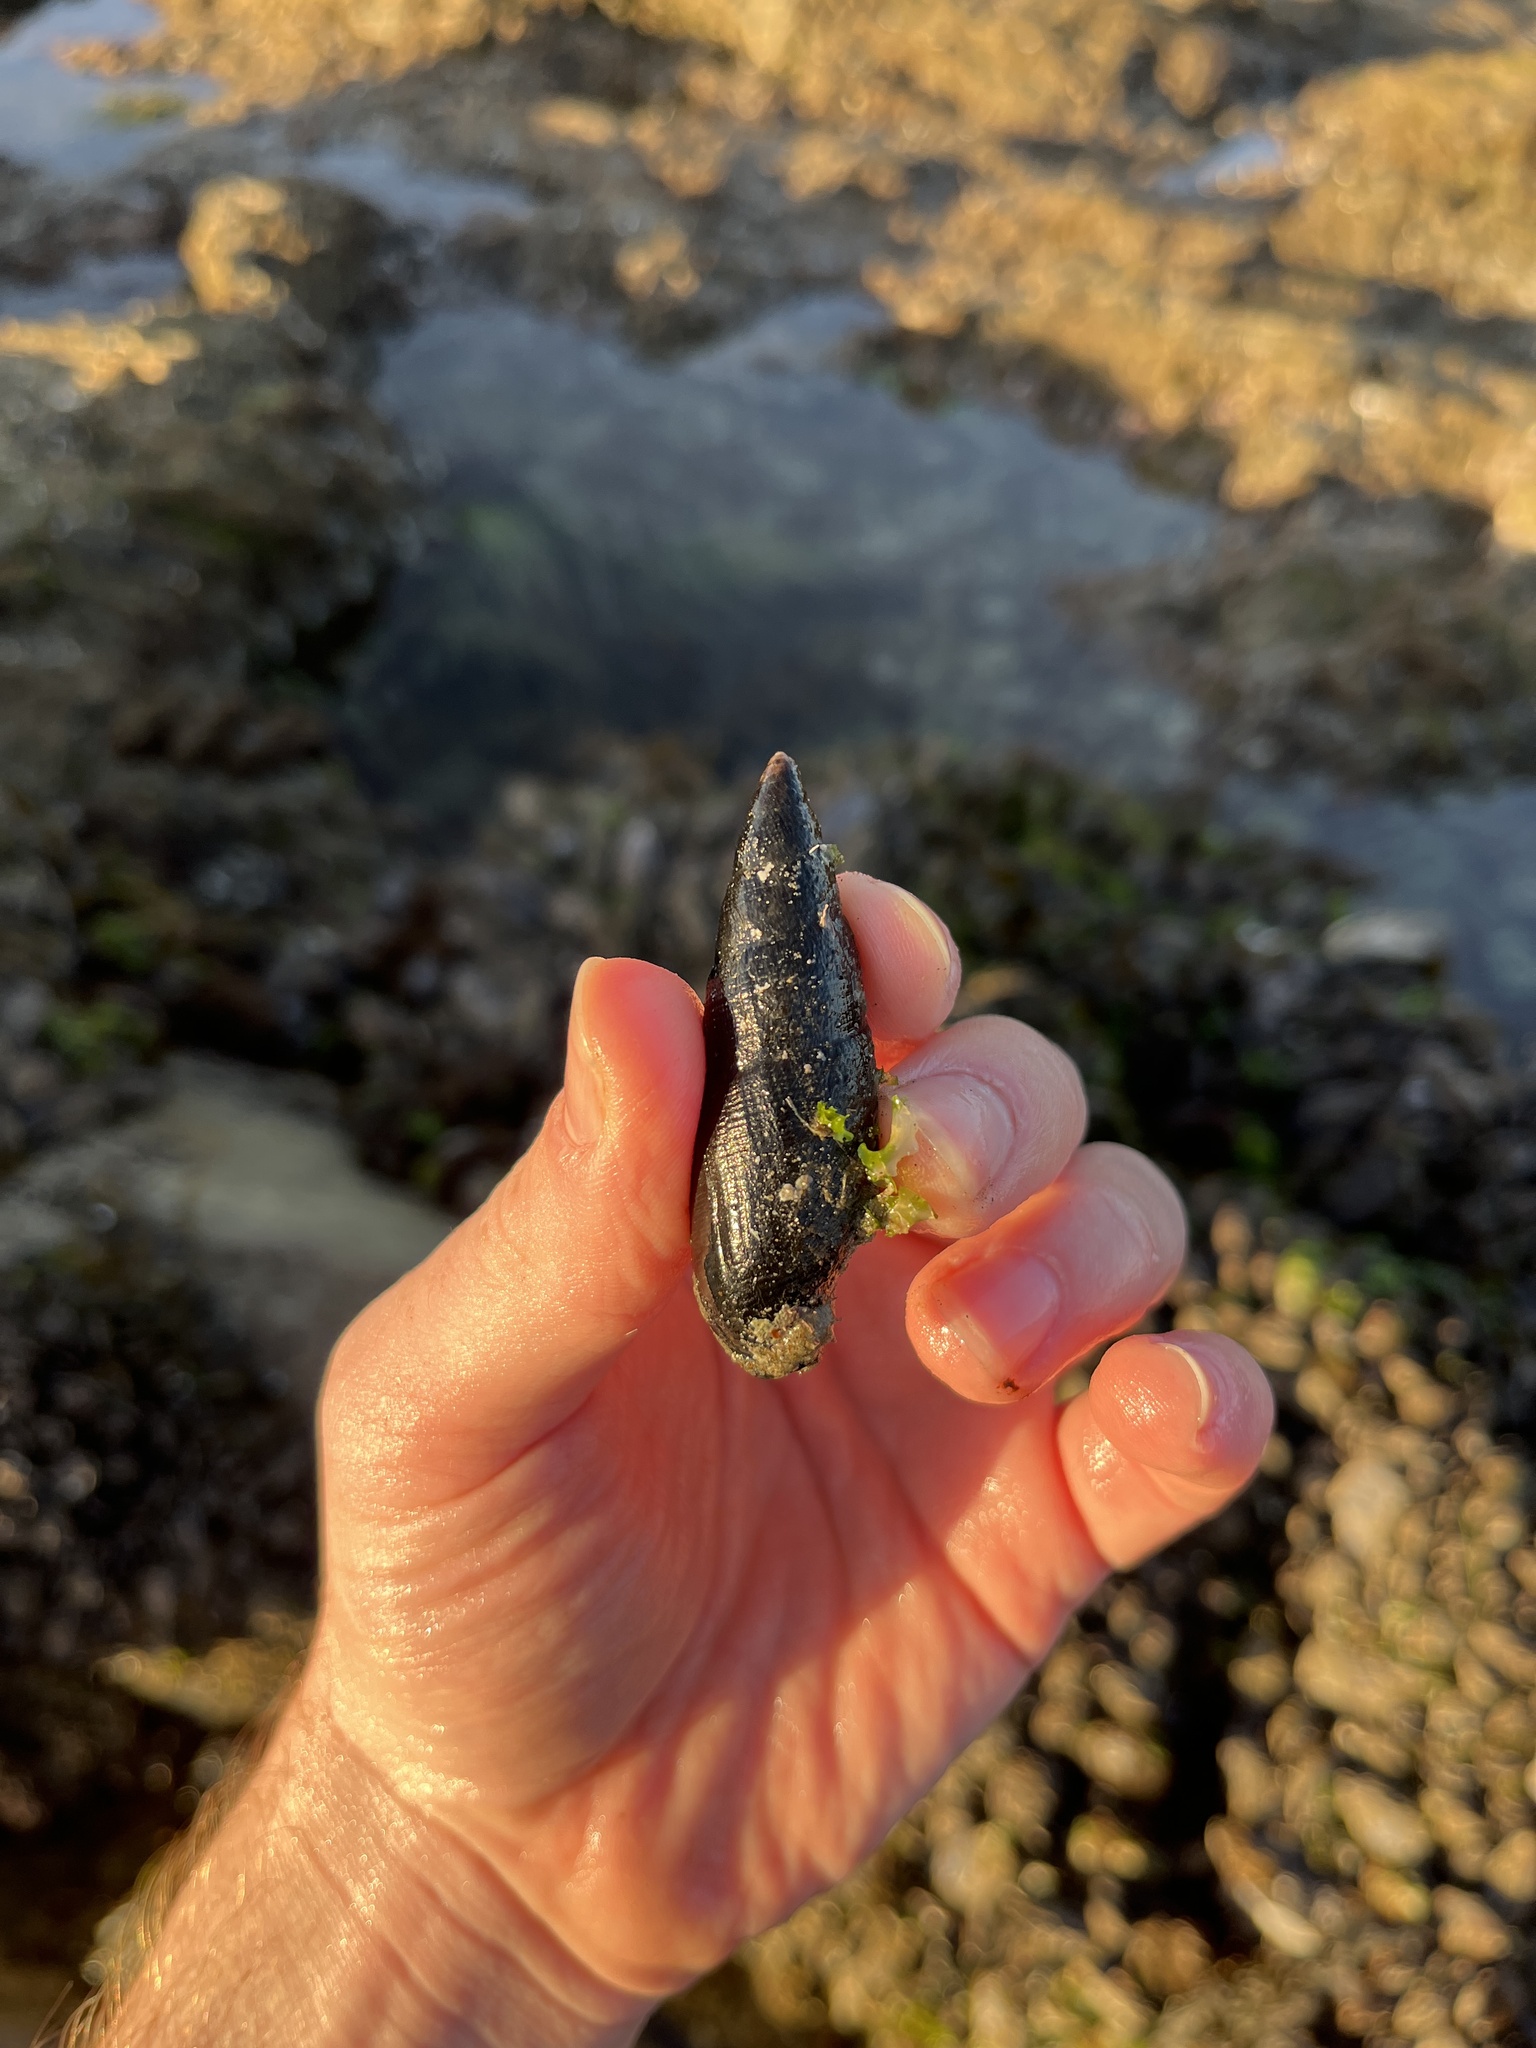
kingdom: Animalia
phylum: Mollusca
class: Gastropoda
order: Neogastropoda
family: Mitridae
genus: Atrimitra
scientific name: Atrimitra idae
